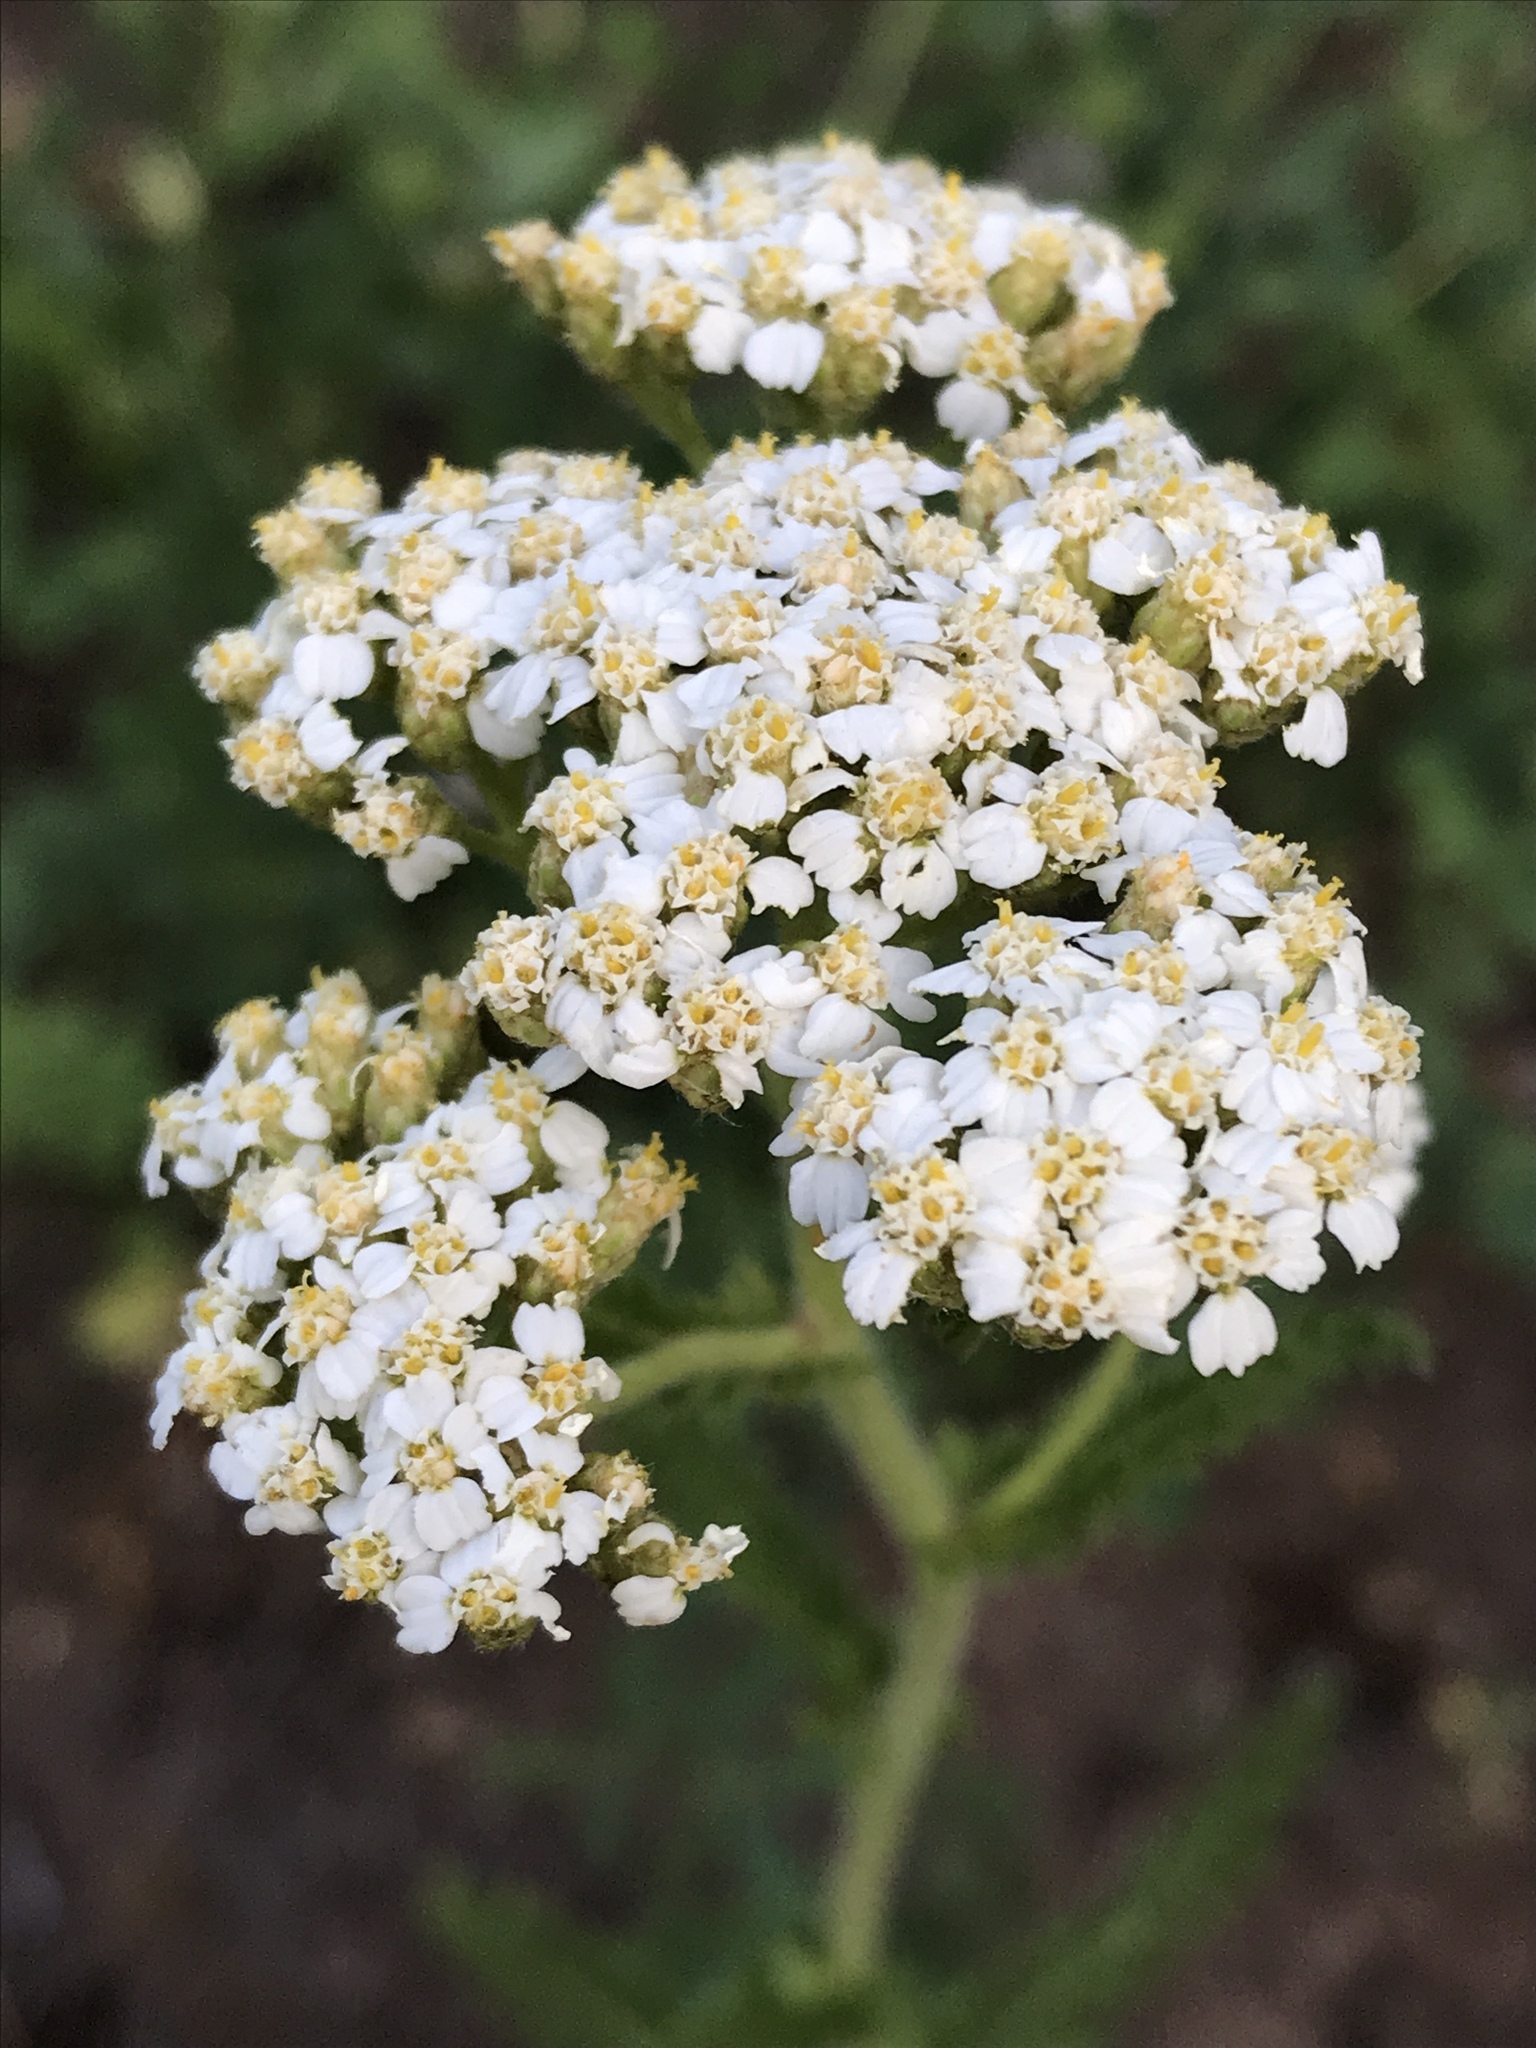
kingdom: Plantae
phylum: Tracheophyta
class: Magnoliopsida
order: Asterales
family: Asteraceae
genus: Achillea
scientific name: Achillea millefolium
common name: Yarrow
